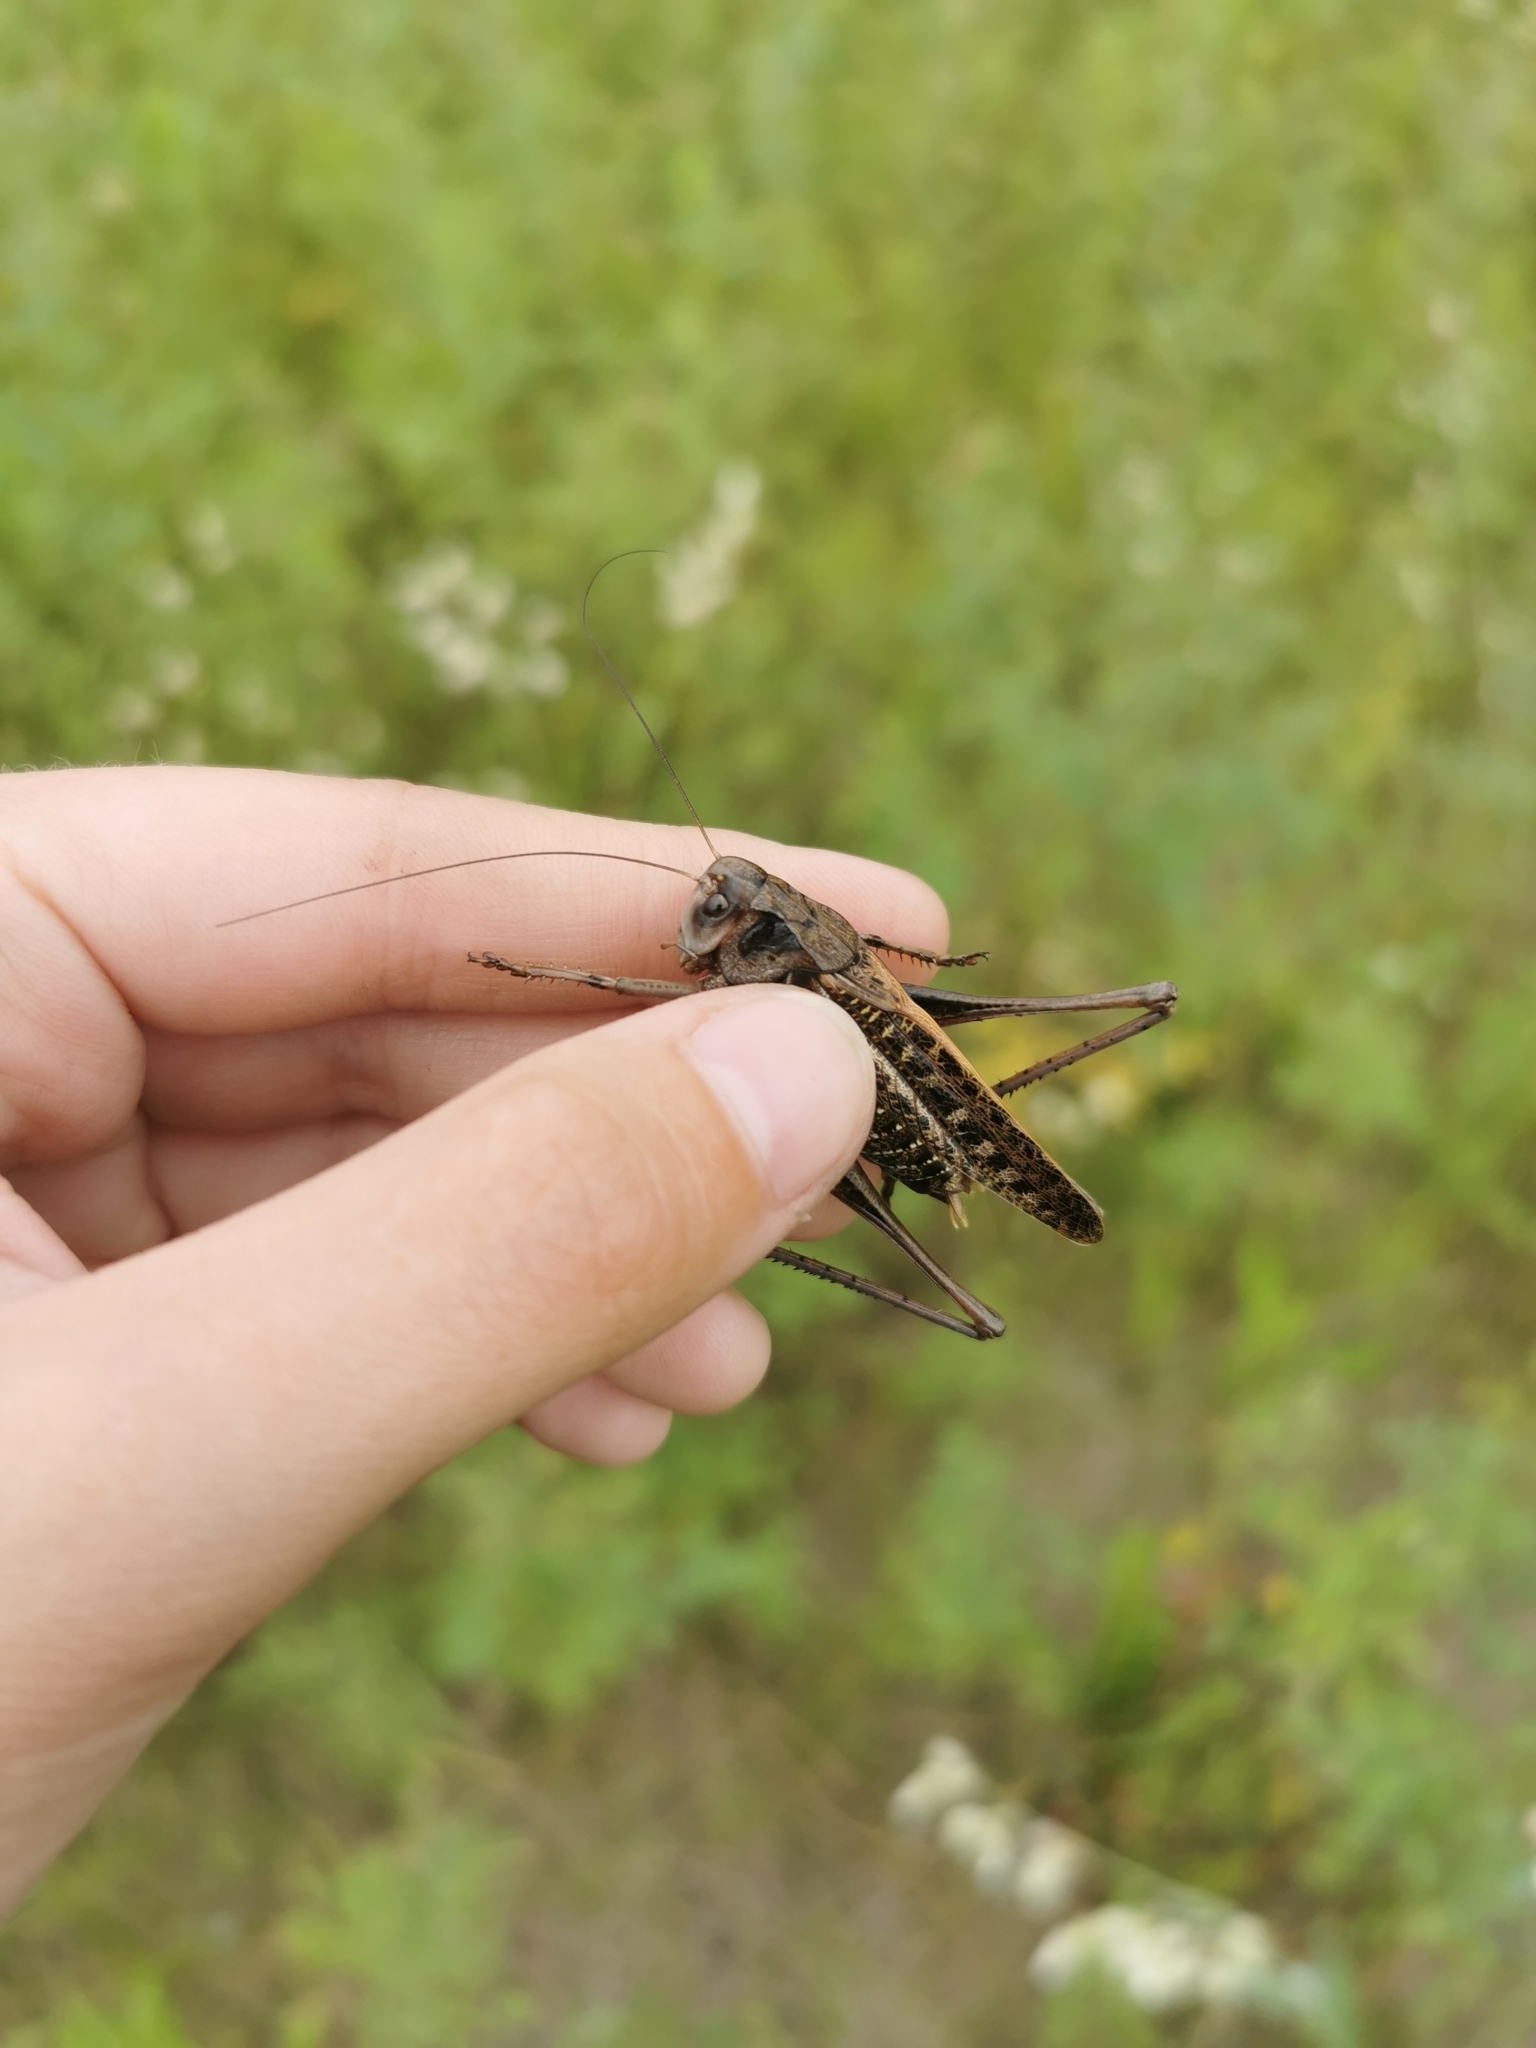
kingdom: Animalia
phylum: Arthropoda
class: Insecta
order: Orthoptera
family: Tettigoniidae
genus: Decticus
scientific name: Decticus verrucivorus
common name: Wart-biter
